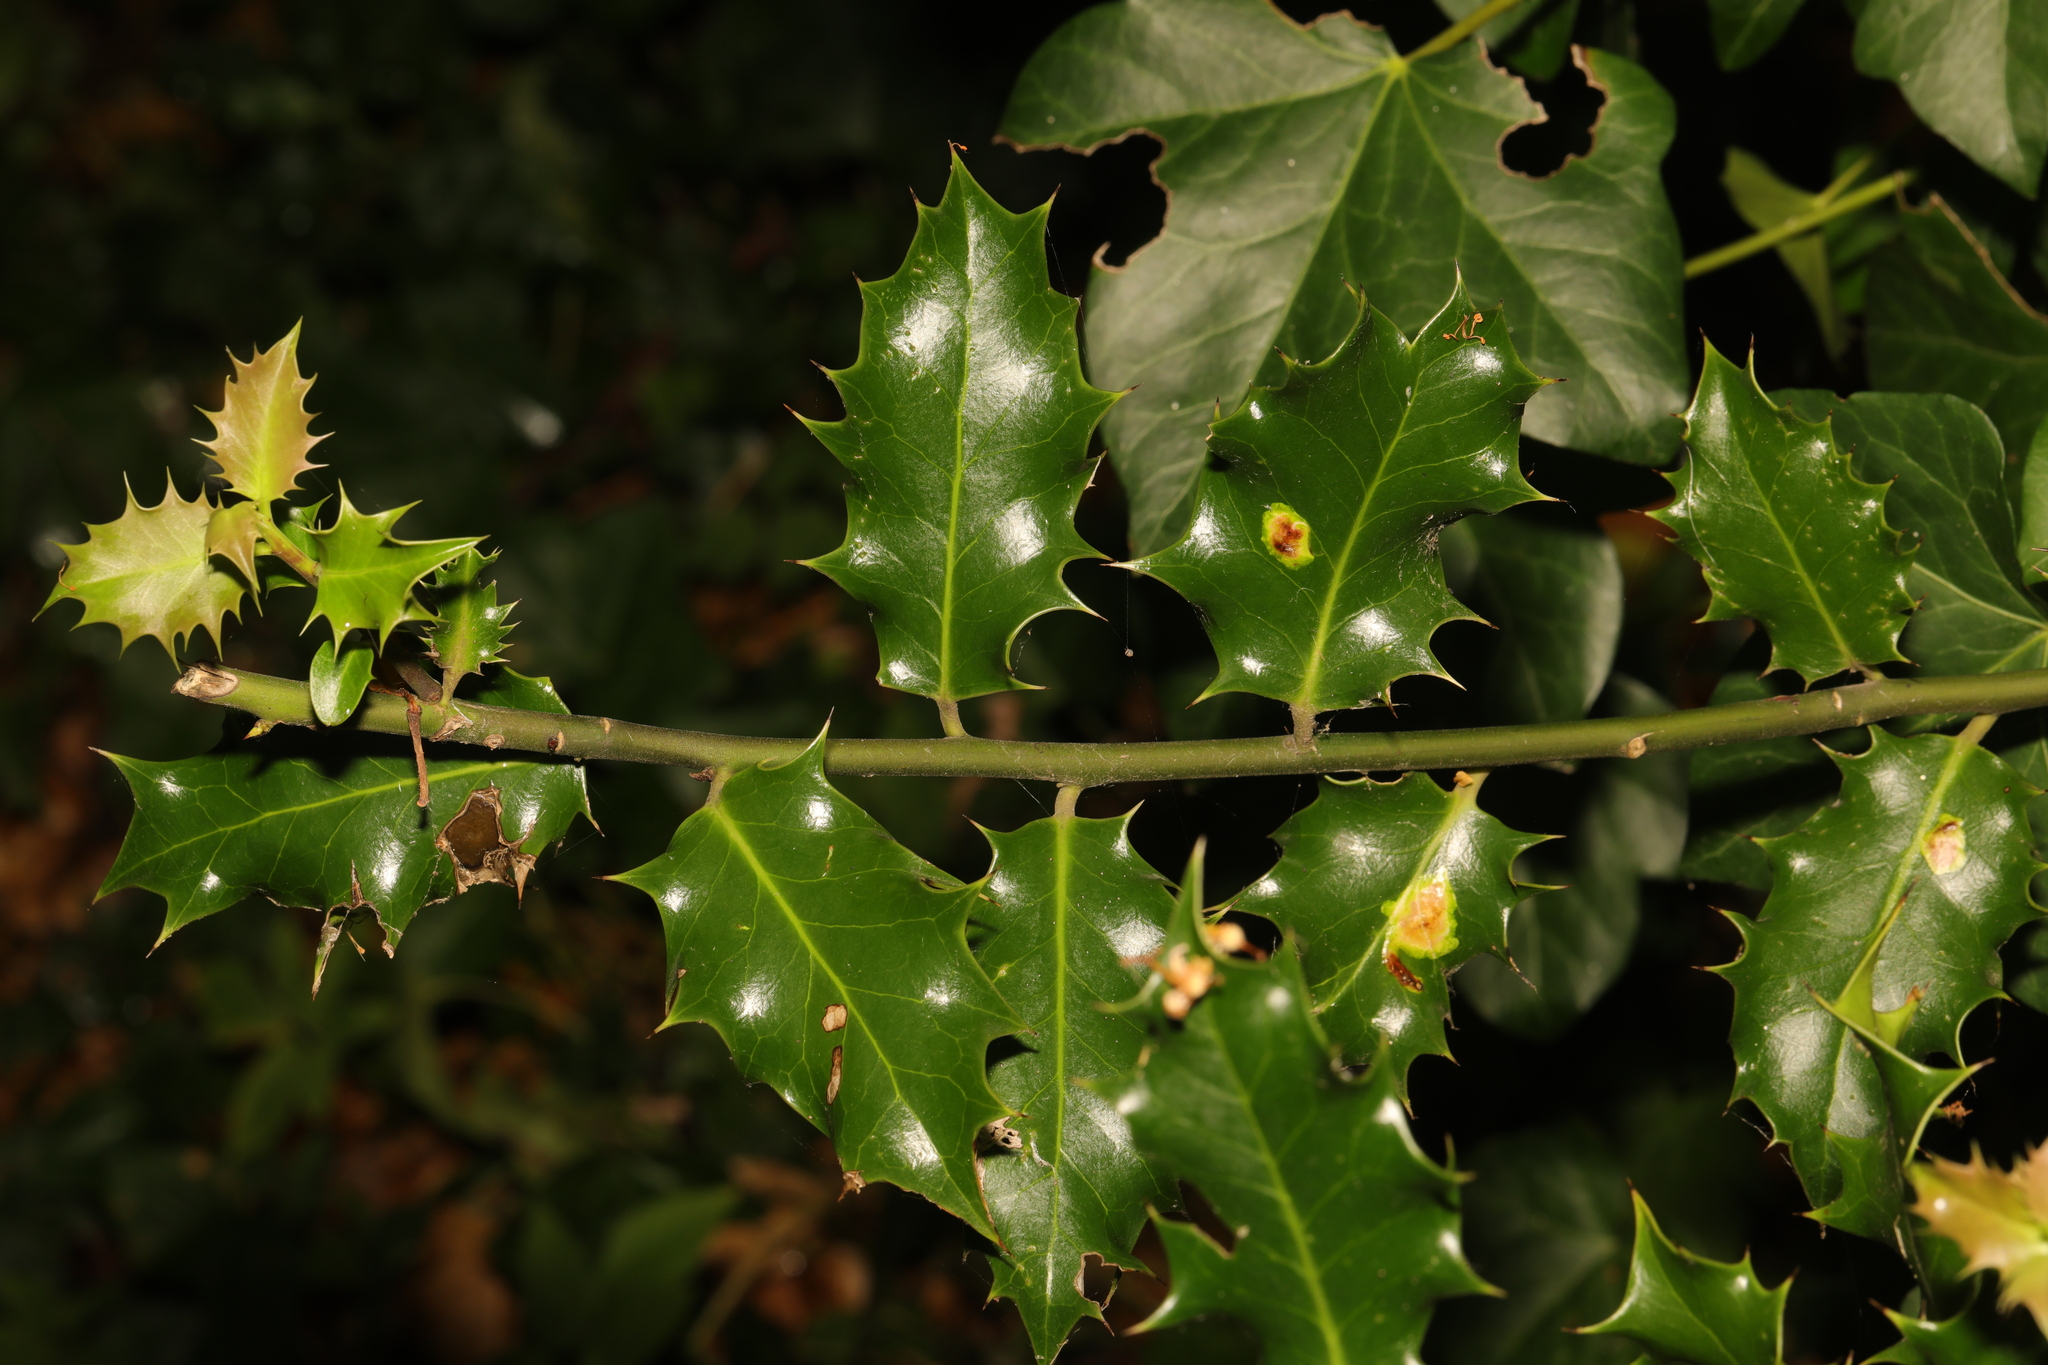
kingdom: Plantae
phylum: Tracheophyta
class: Magnoliopsida
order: Aquifoliales
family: Aquifoliaceae
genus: Ilex
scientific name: Ilex aquifolium
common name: English holly
